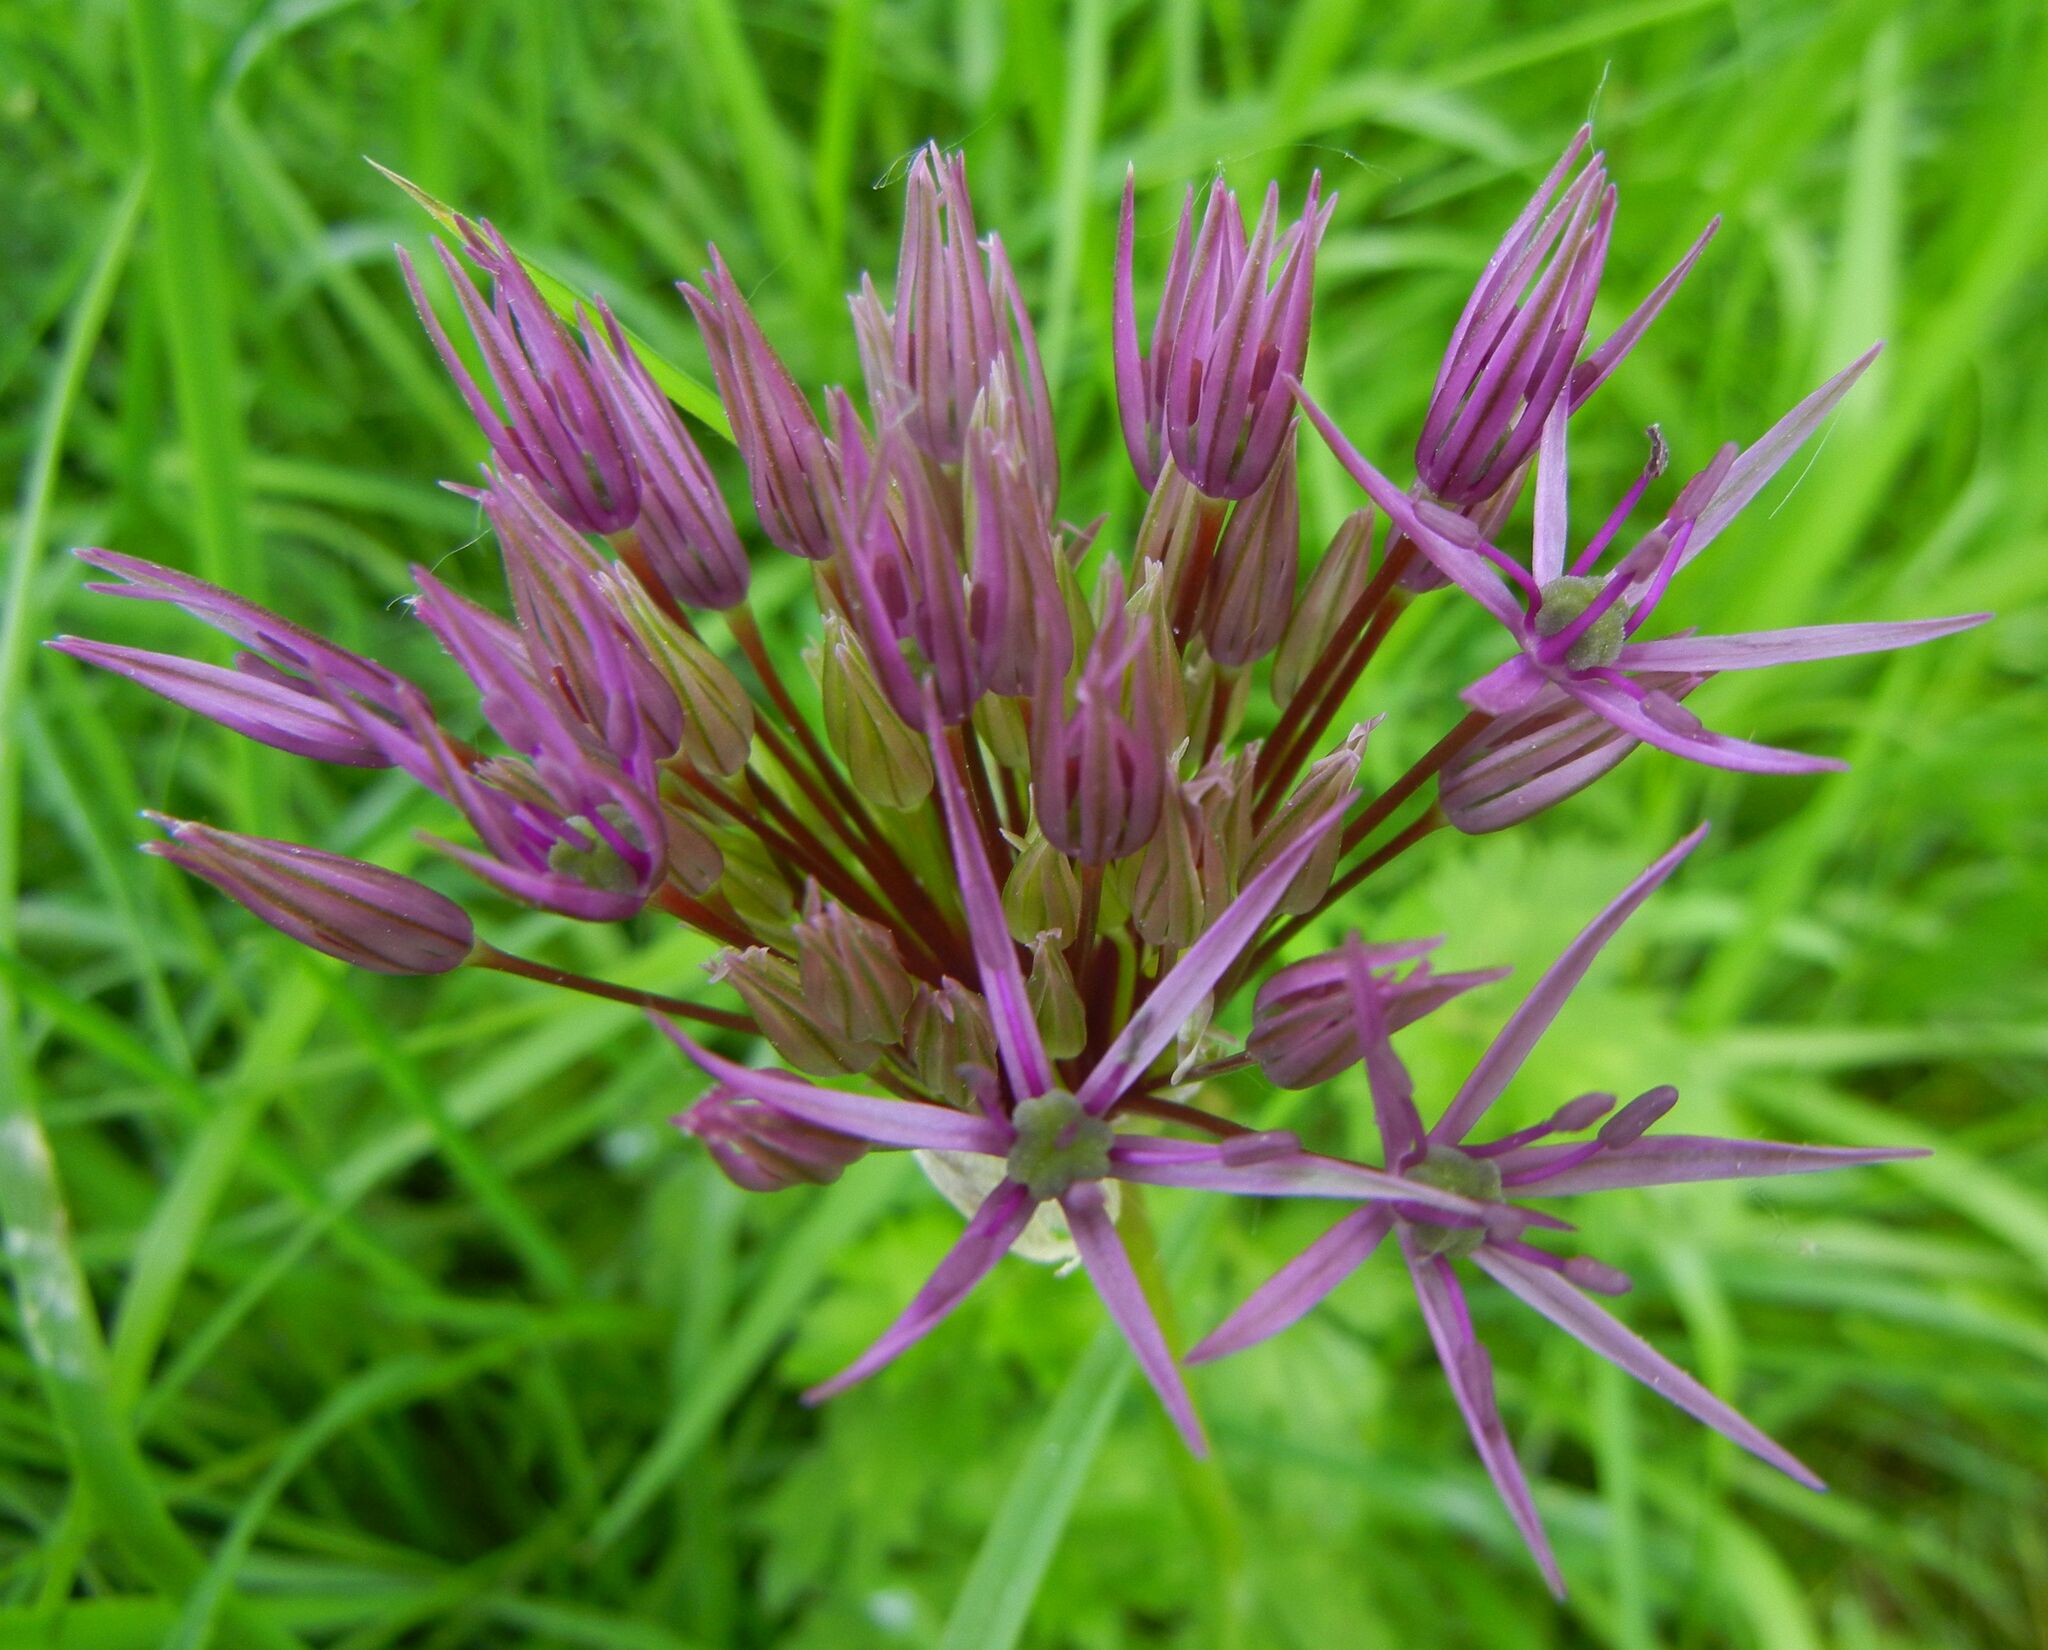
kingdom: Plantae
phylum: Tracheophyta
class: Liliopsida
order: Asparagales
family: Amaryllidaceae
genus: Allium
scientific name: Allium cristophii
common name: Persian onion
